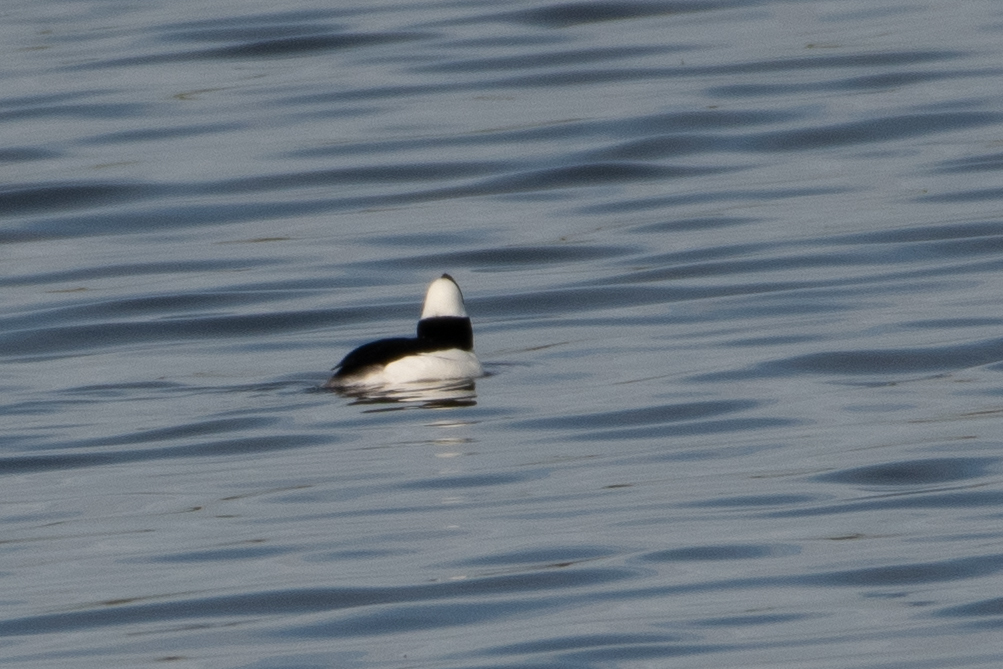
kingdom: Animalia
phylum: Chordata
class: Aves
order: Anseriformes
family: Anatidae
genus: Bucephala
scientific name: Bucephala albeola
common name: Bufflehead
